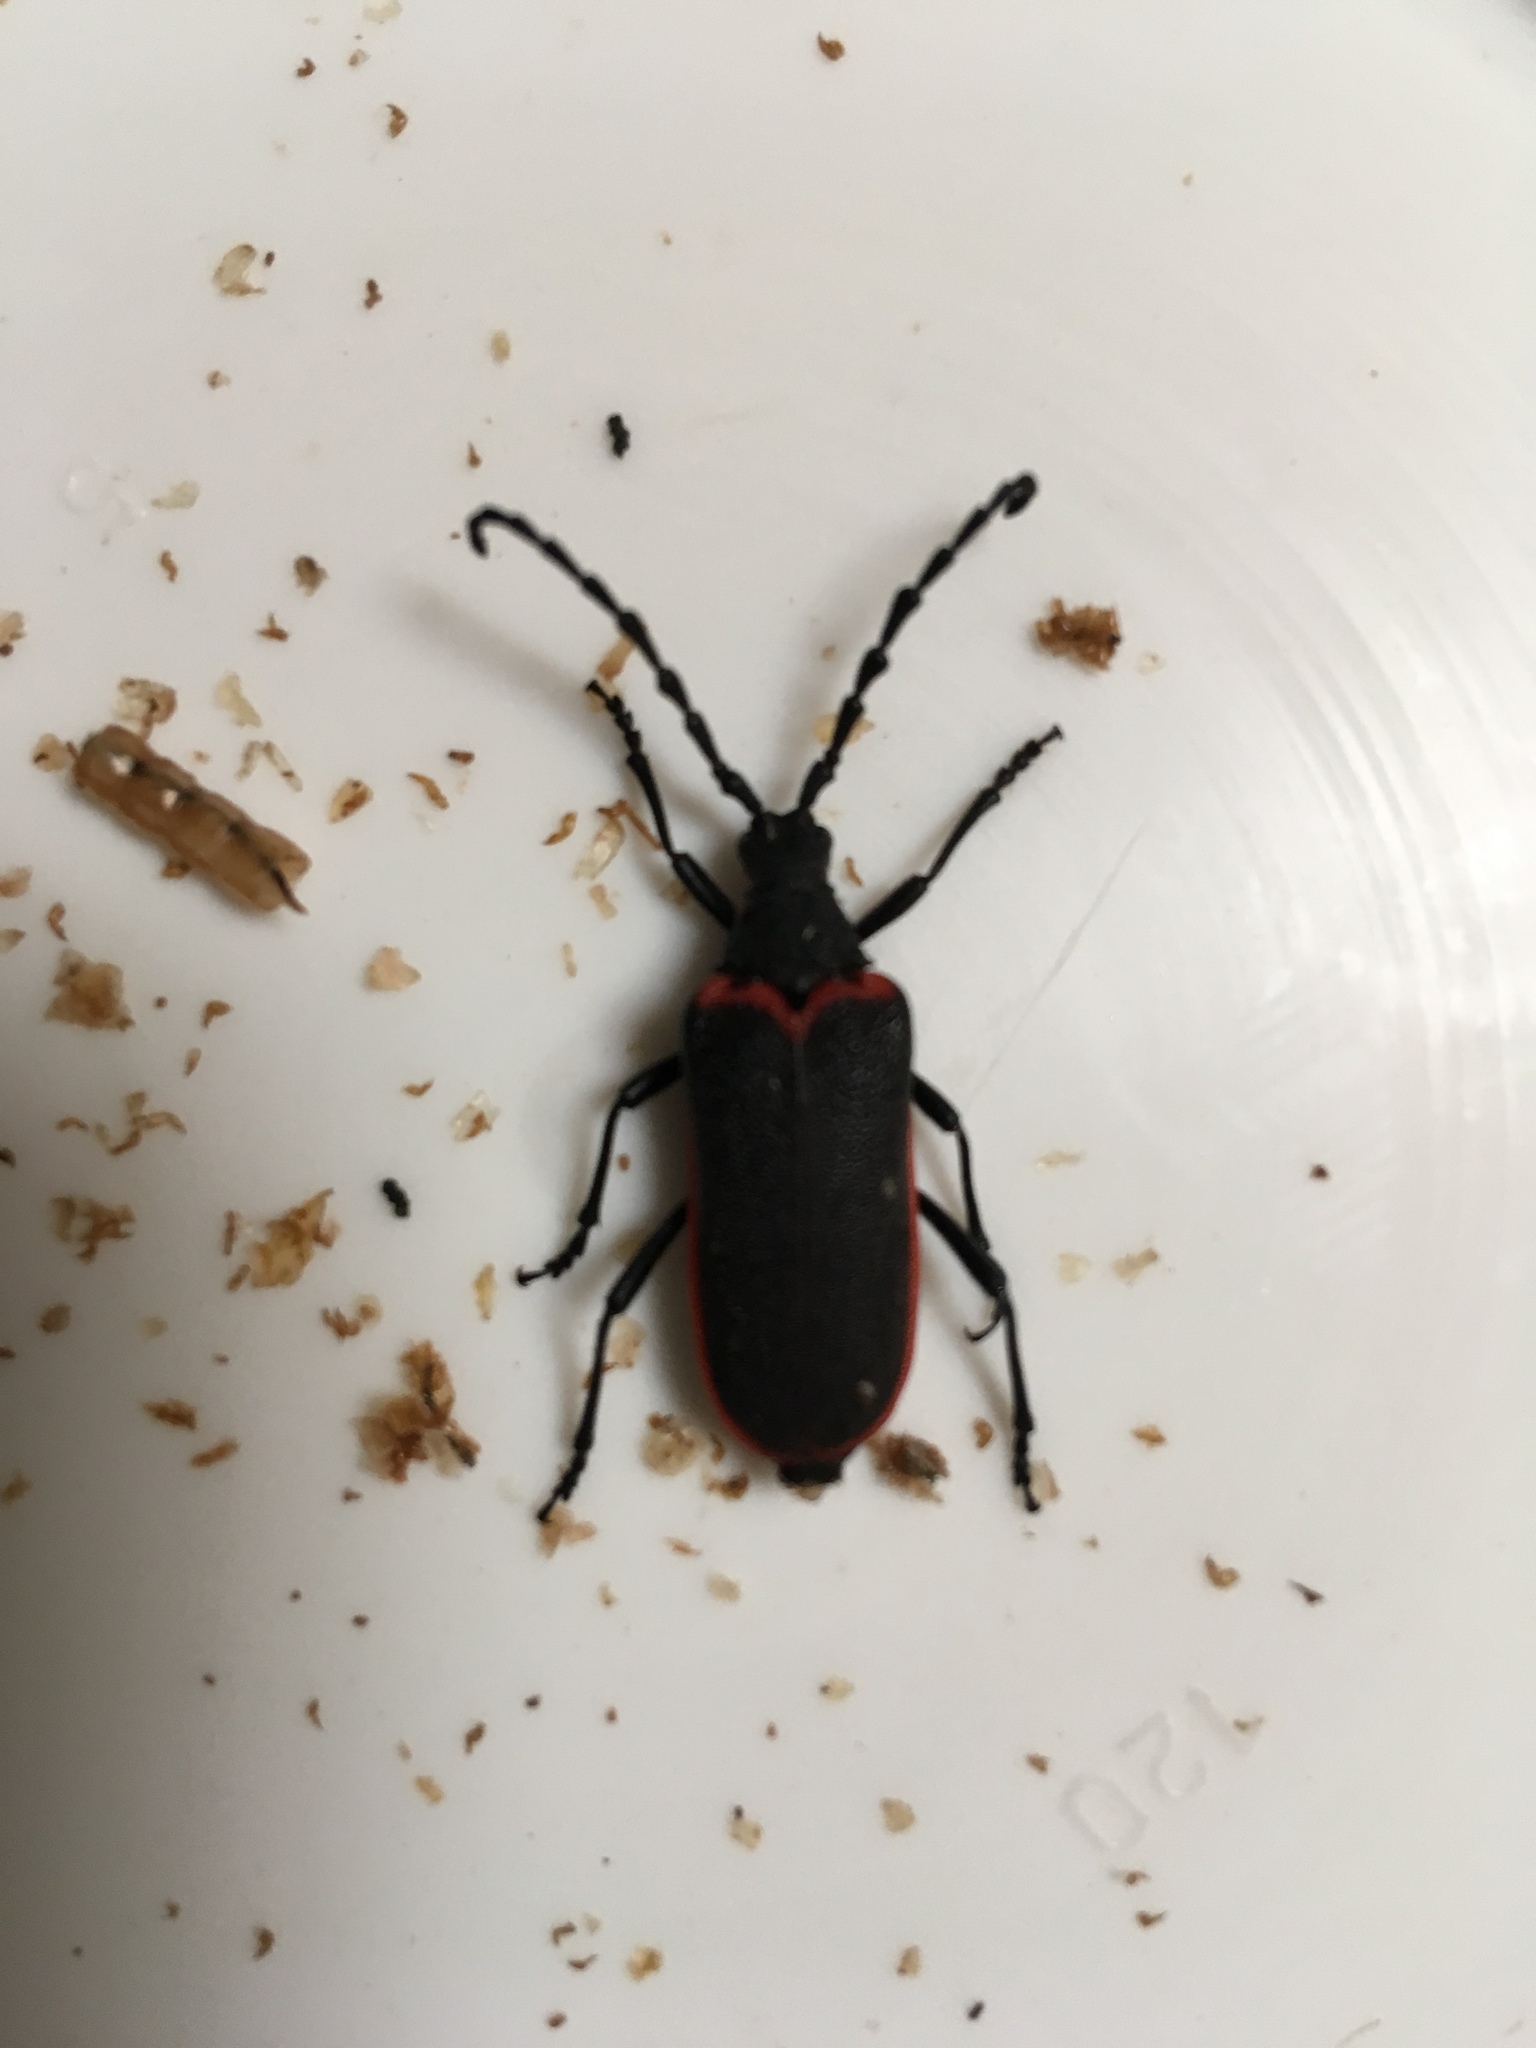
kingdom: Animalia
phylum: Arthropoda
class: Insecta
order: Coleoptera
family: Cerambycidae
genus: Desmocerus
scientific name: Desmocerus californicus
